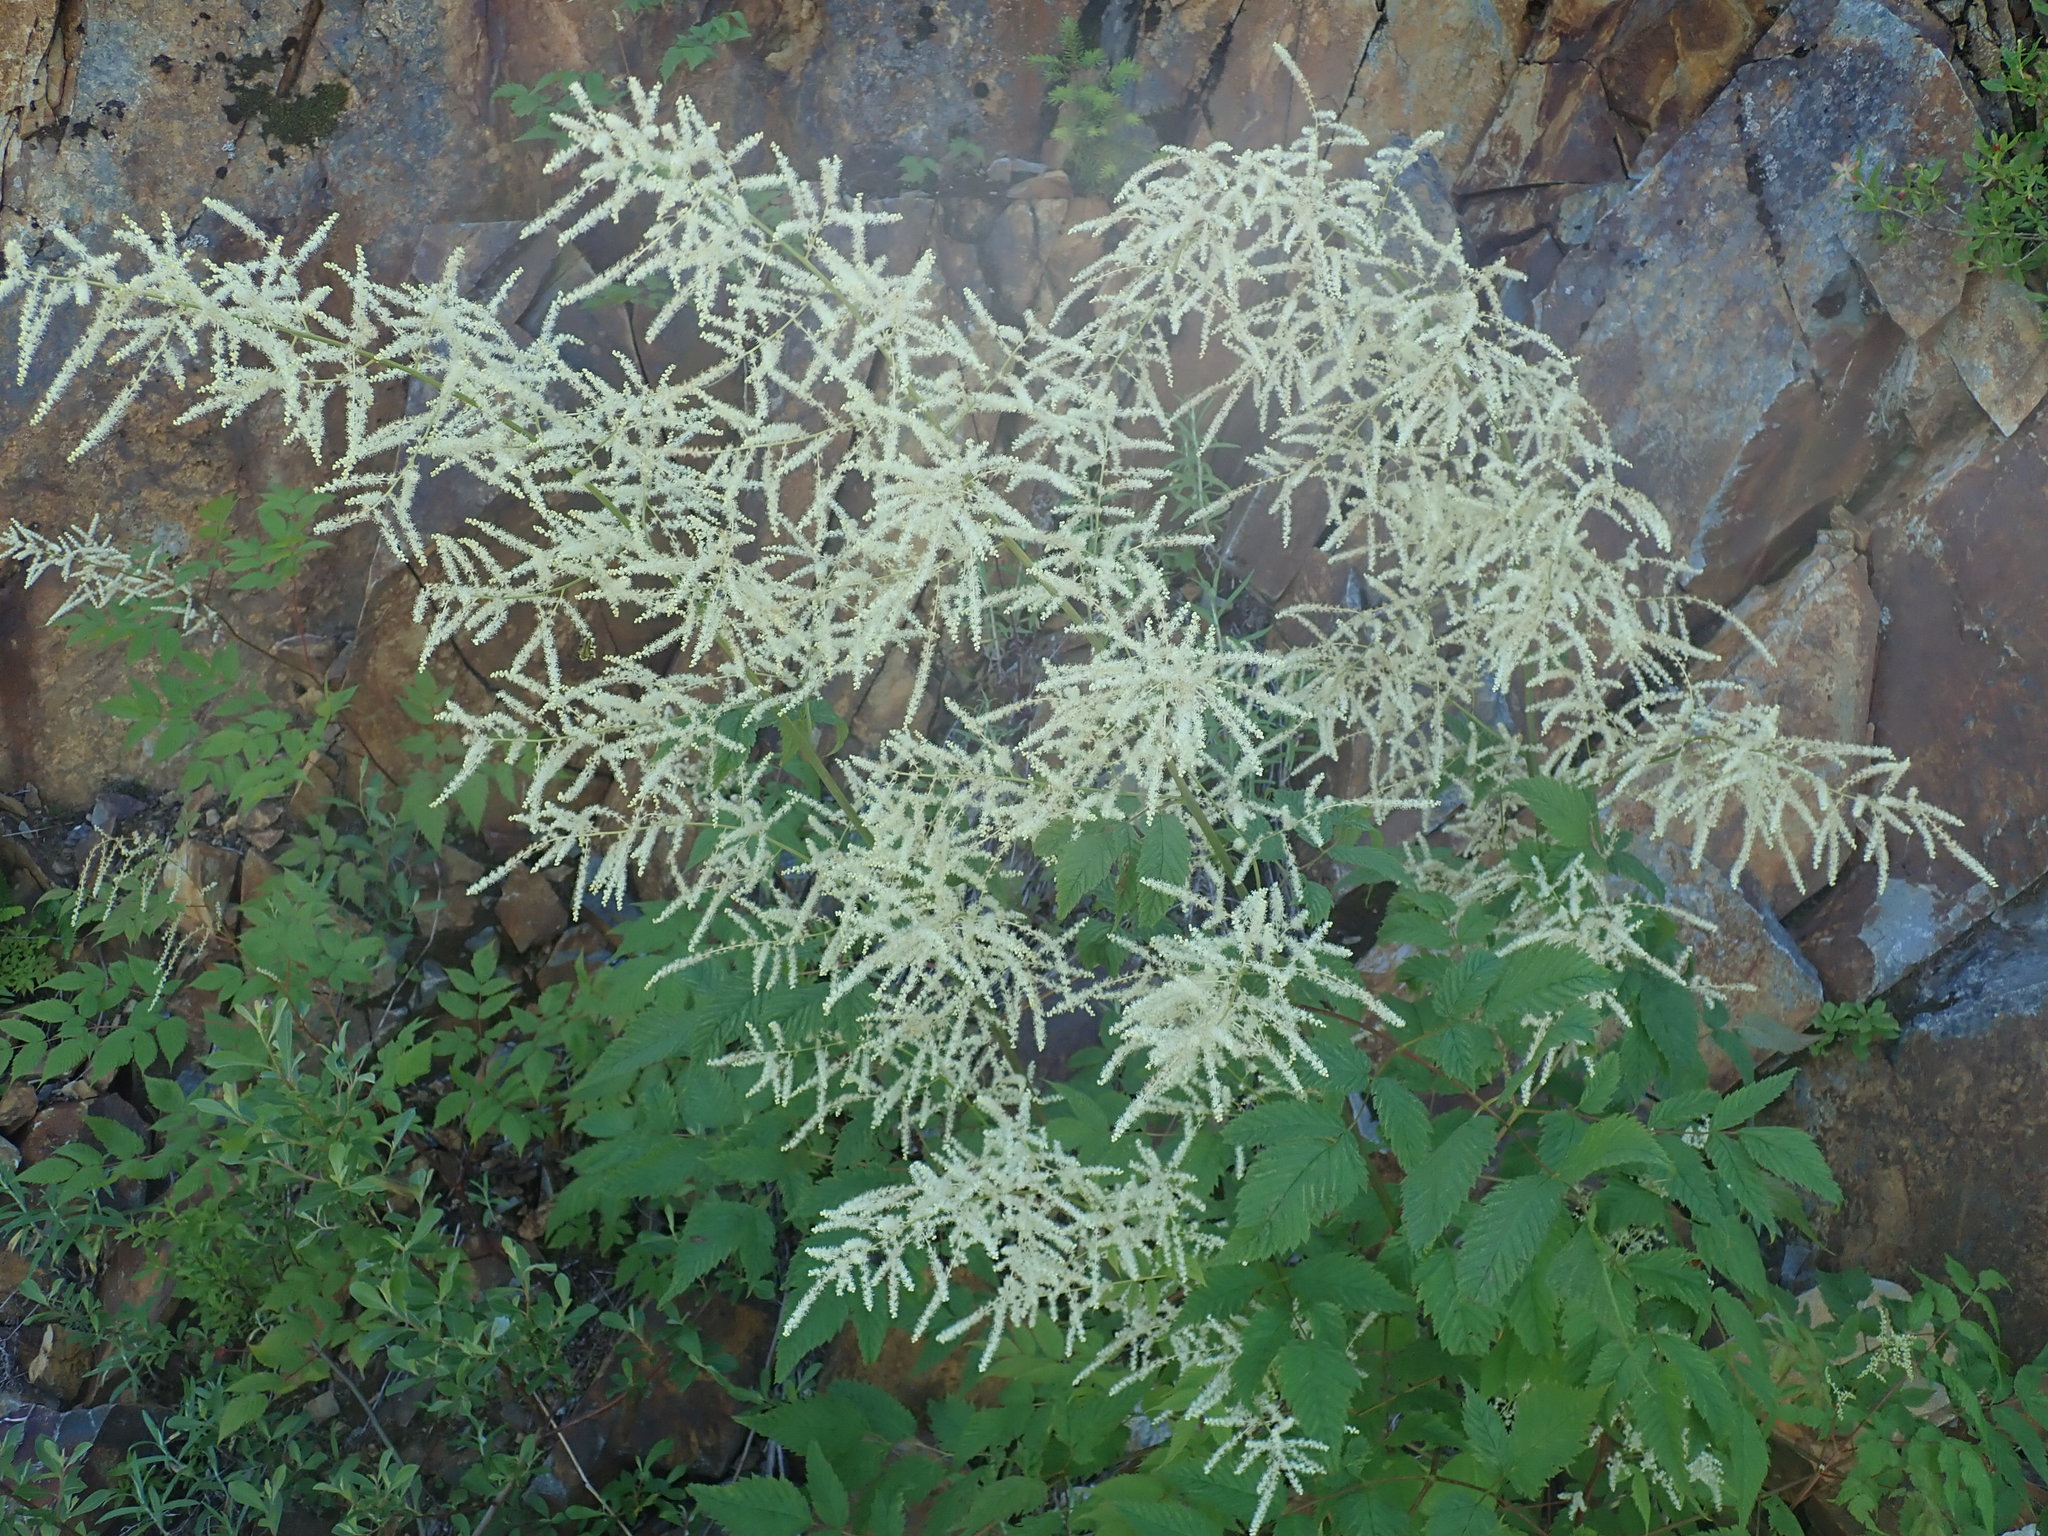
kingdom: Plantae
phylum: Tracheophyta
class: Magnoliopsida
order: Rosales
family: Rosaceae
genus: Aruncus
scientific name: Aruncus dioicus
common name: Buck's-beard
